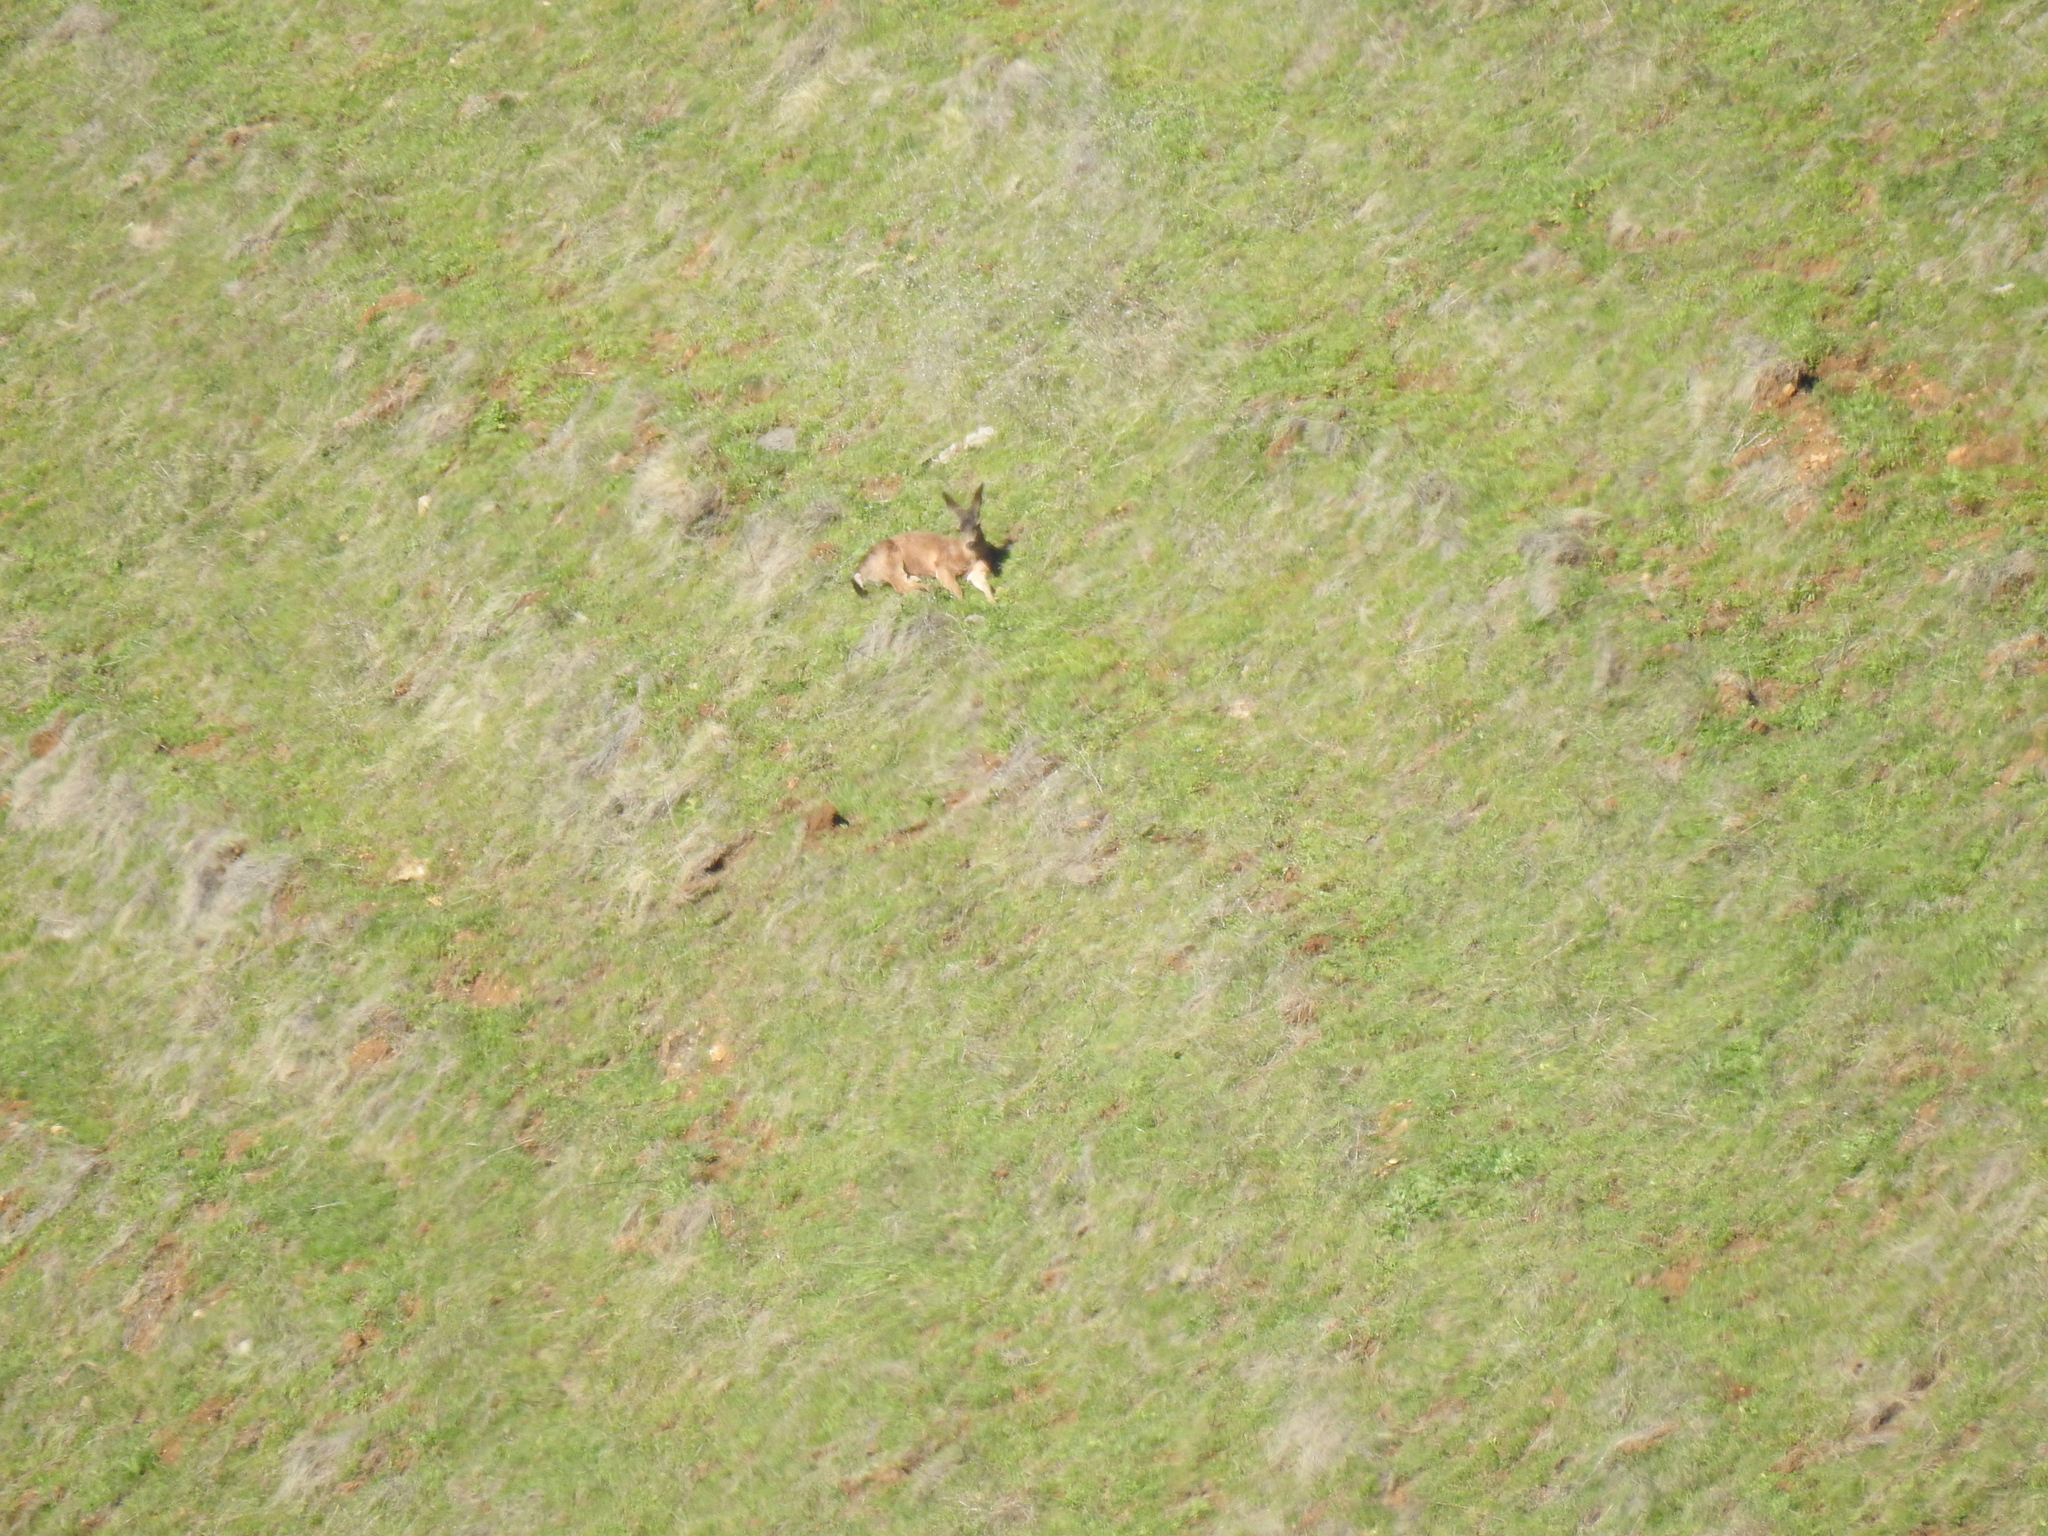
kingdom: Animalia
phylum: Chordata
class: Mammalia
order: Artiodactyla
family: Cervidae
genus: Odocoileus
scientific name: Odocoileus hemionus
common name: Mule deer
